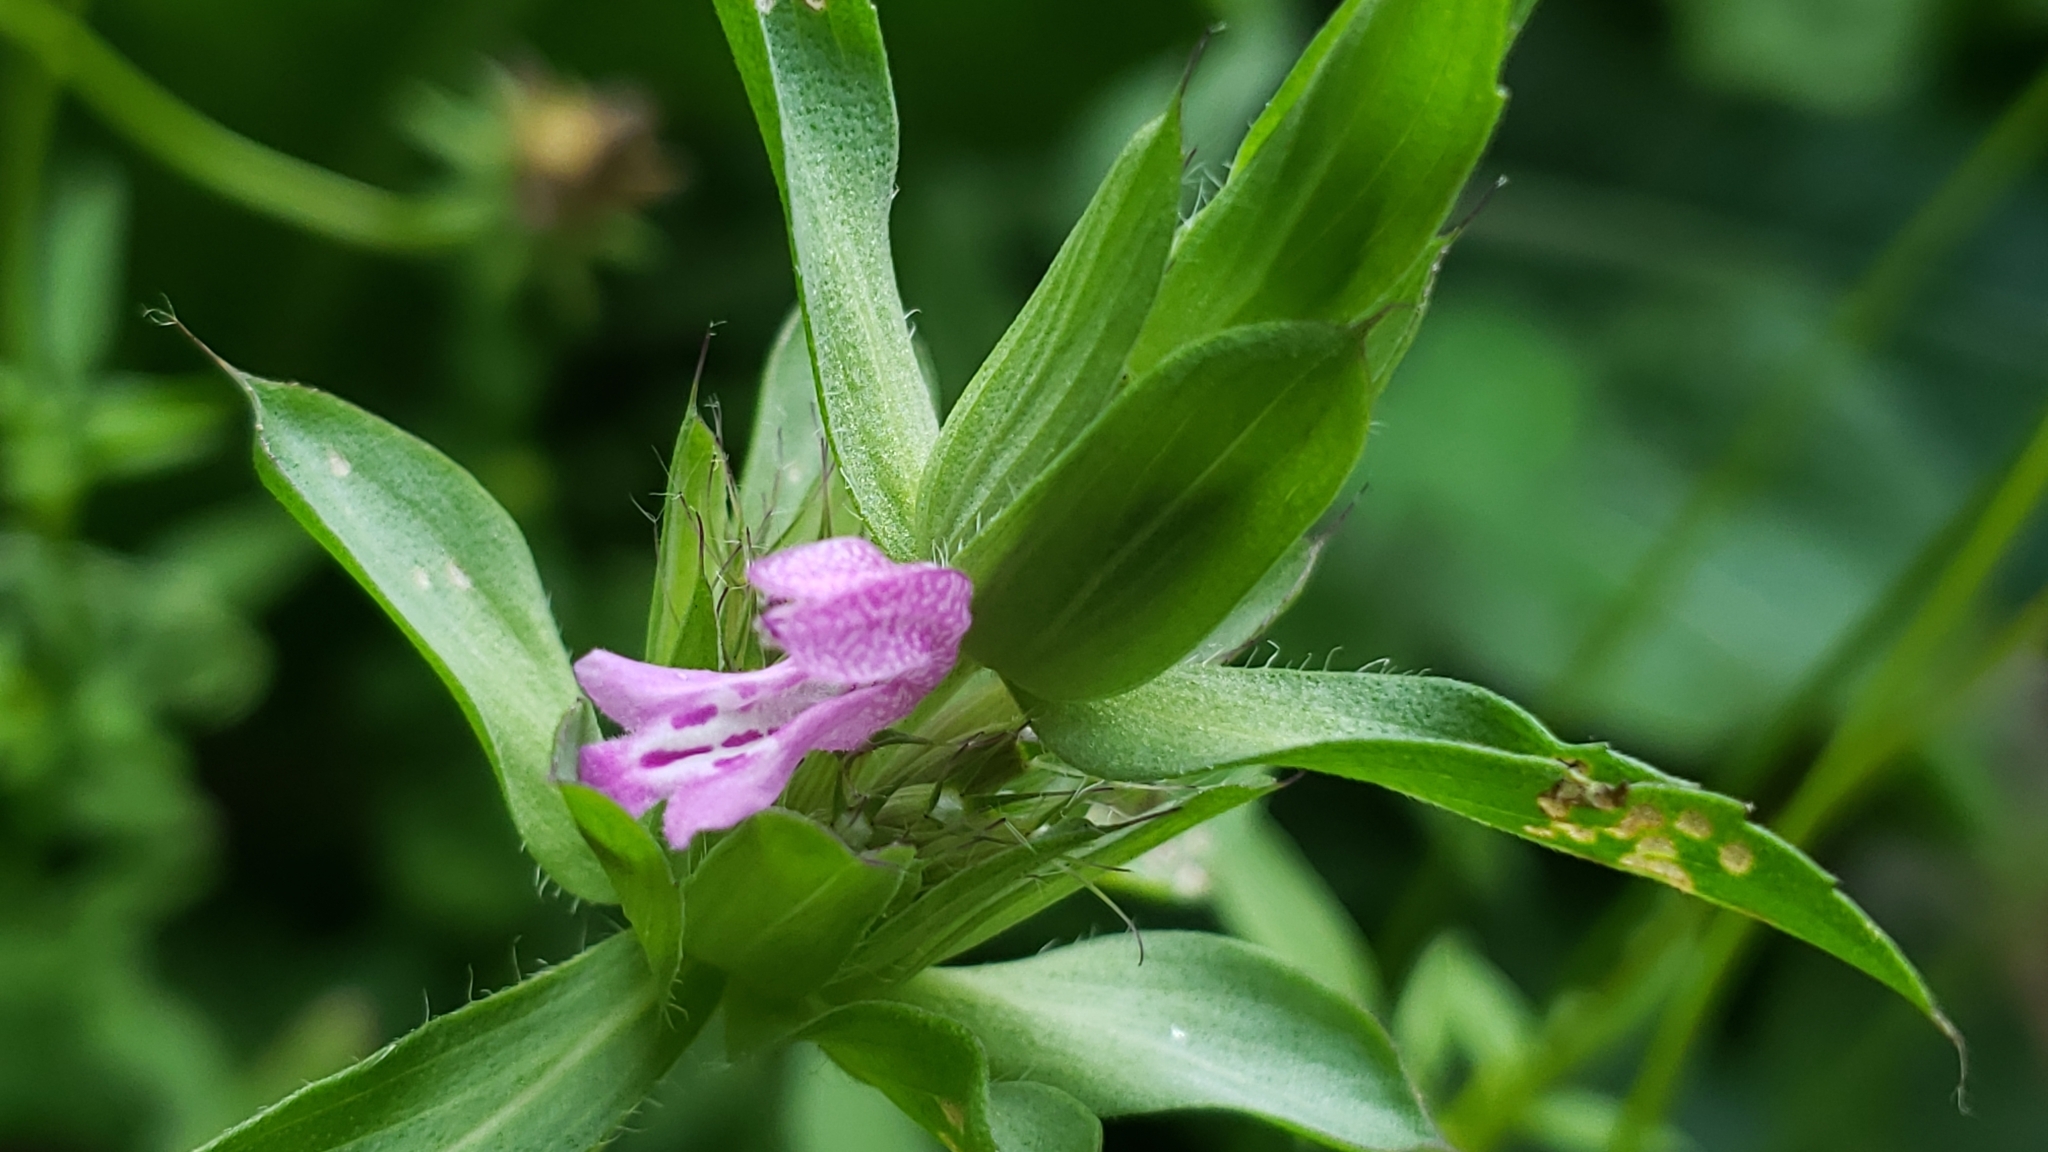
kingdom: Plantae
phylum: Tracheophyta
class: Magnoliopsida
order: Lamiales
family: Lamiaceae
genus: Monarda
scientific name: Monarda citriodora
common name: Lemon beebalm
